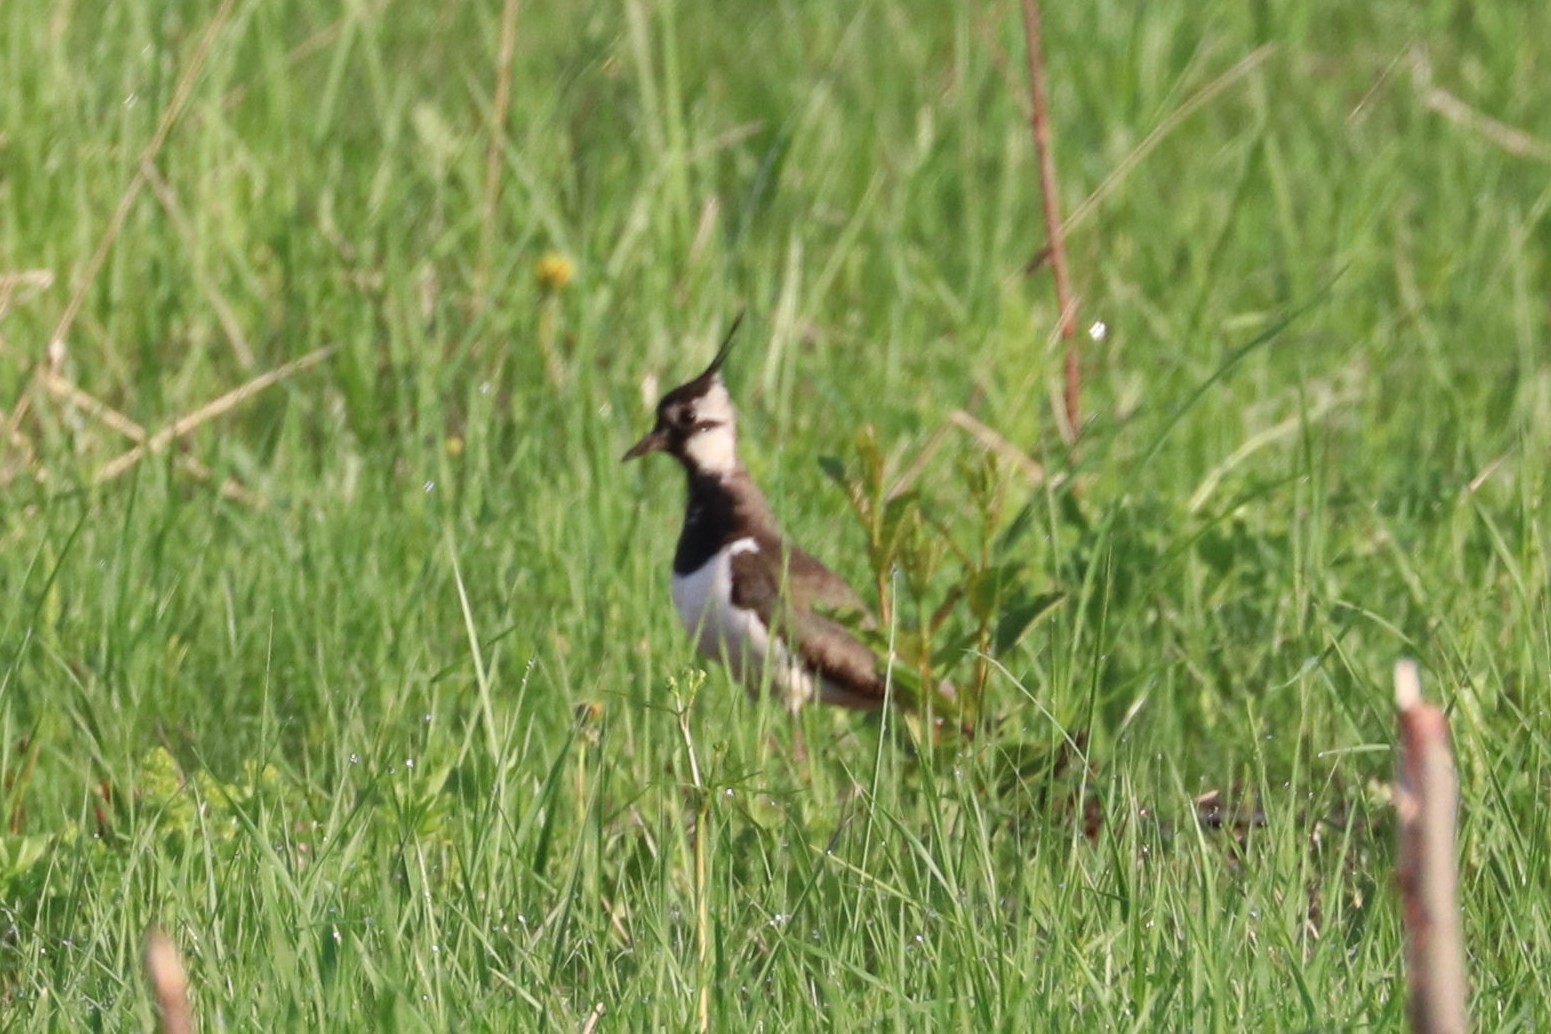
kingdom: Animalia
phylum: Chordata
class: Aves
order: Charadriiformes
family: Charadriidae
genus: Vanellus
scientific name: Vanellus vanellus
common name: Northern lapwing
